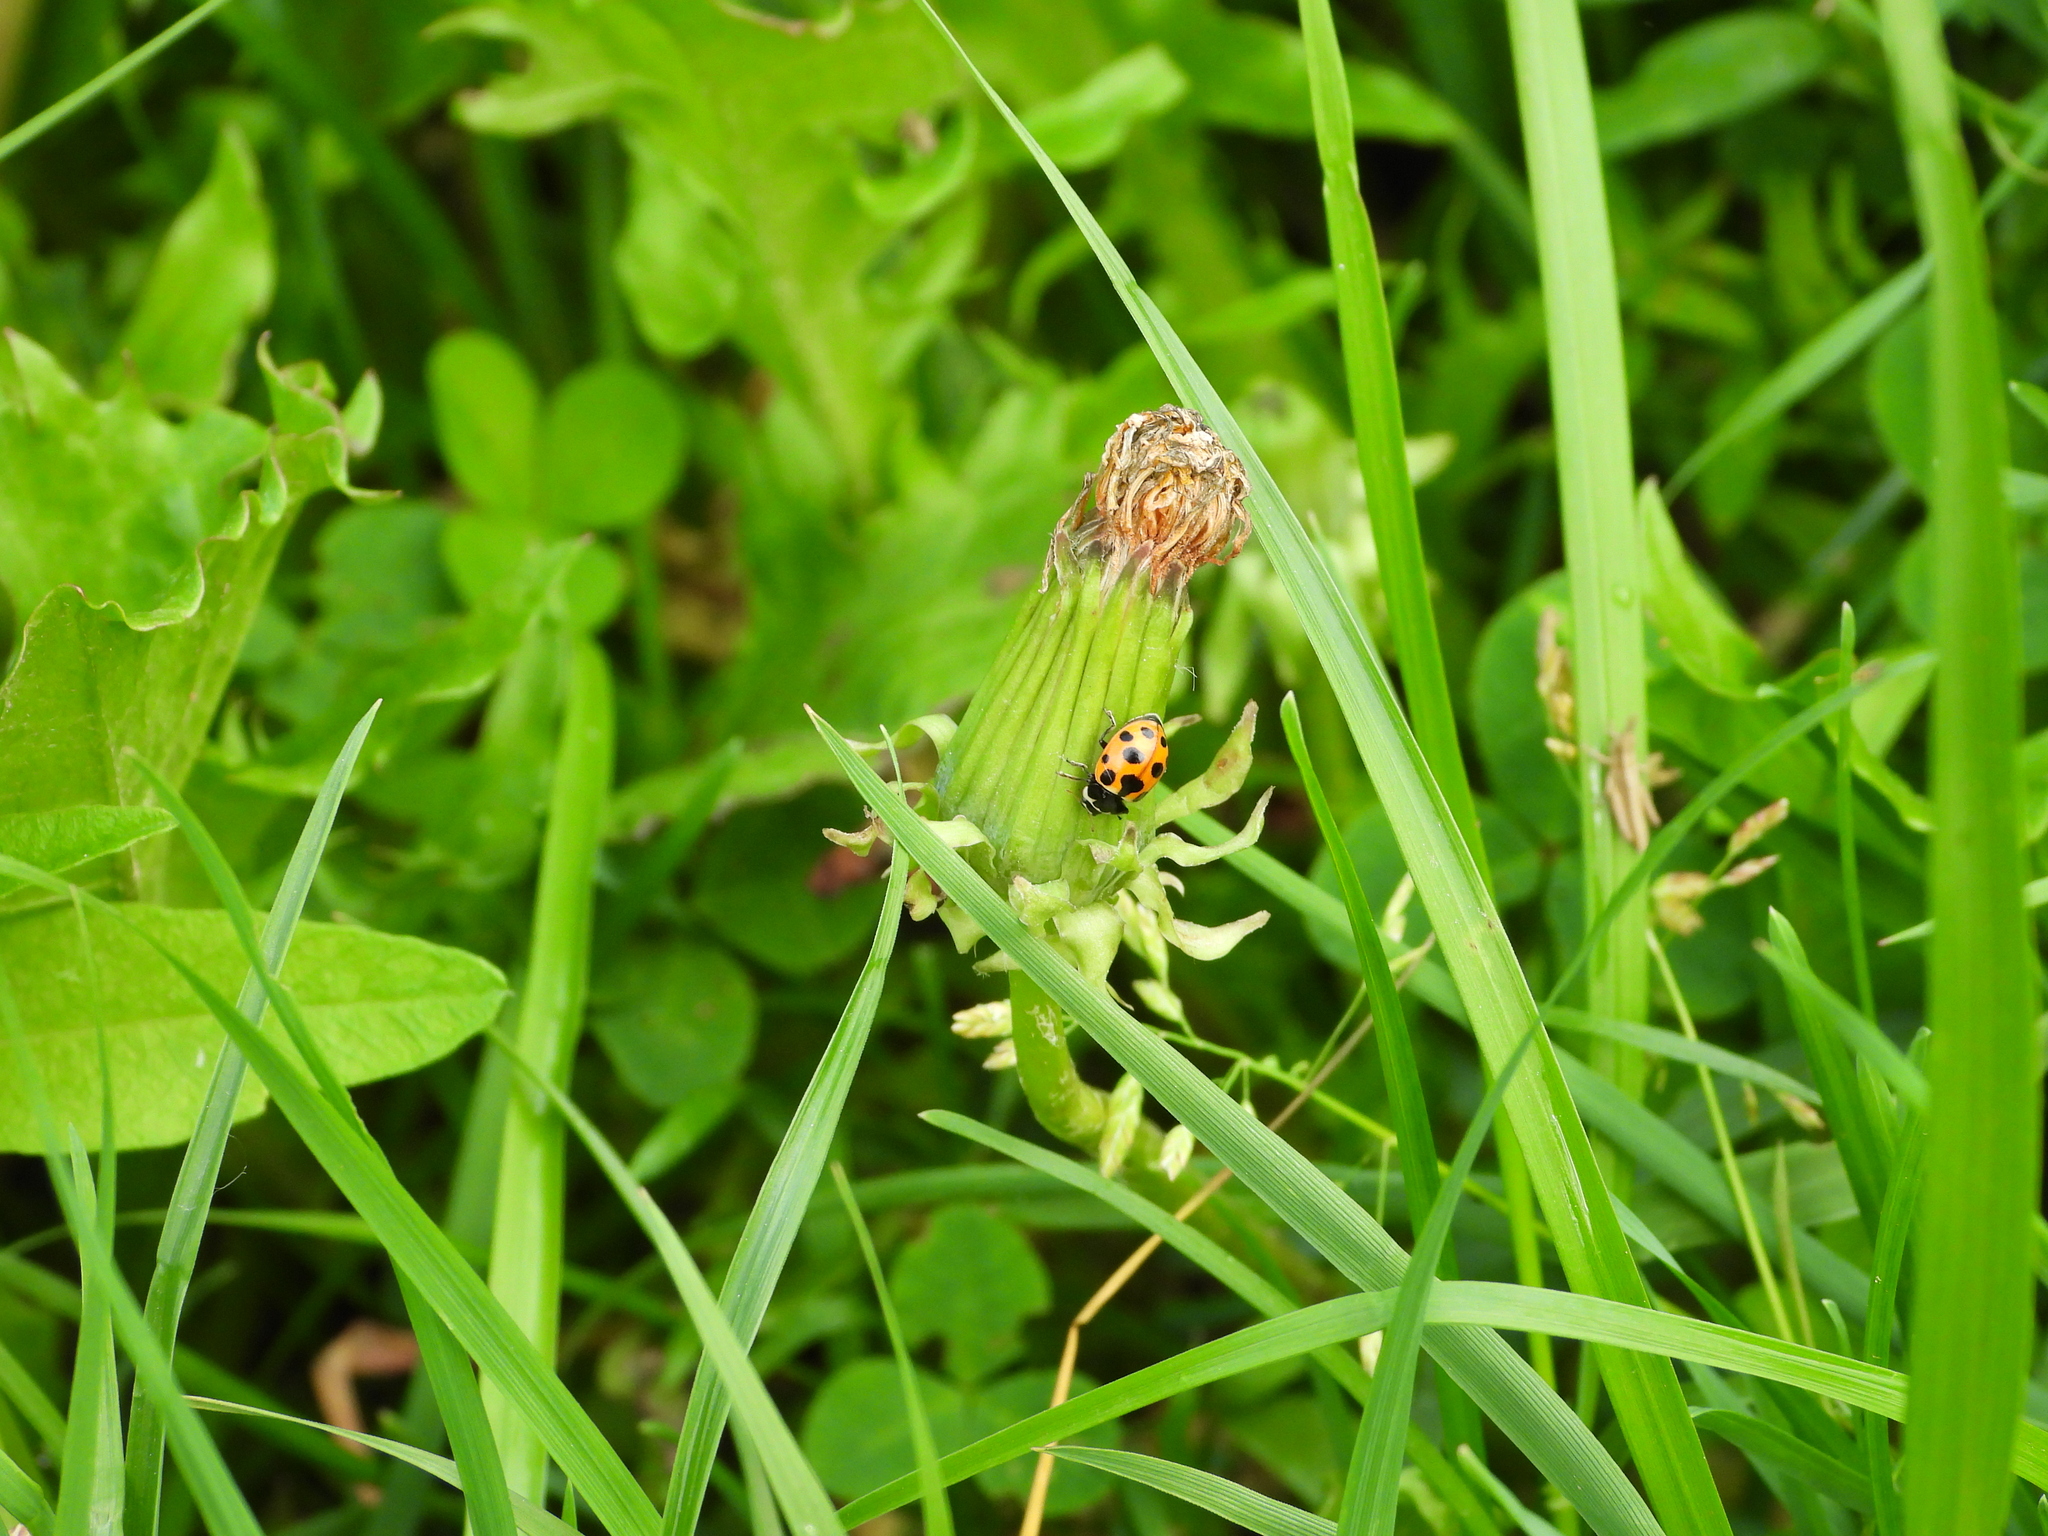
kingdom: Animalia
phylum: Arthropoda
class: Insecta
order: Coleoptera
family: Coccinellidae
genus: Ceratomegilla
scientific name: Ceratomegilla notata
